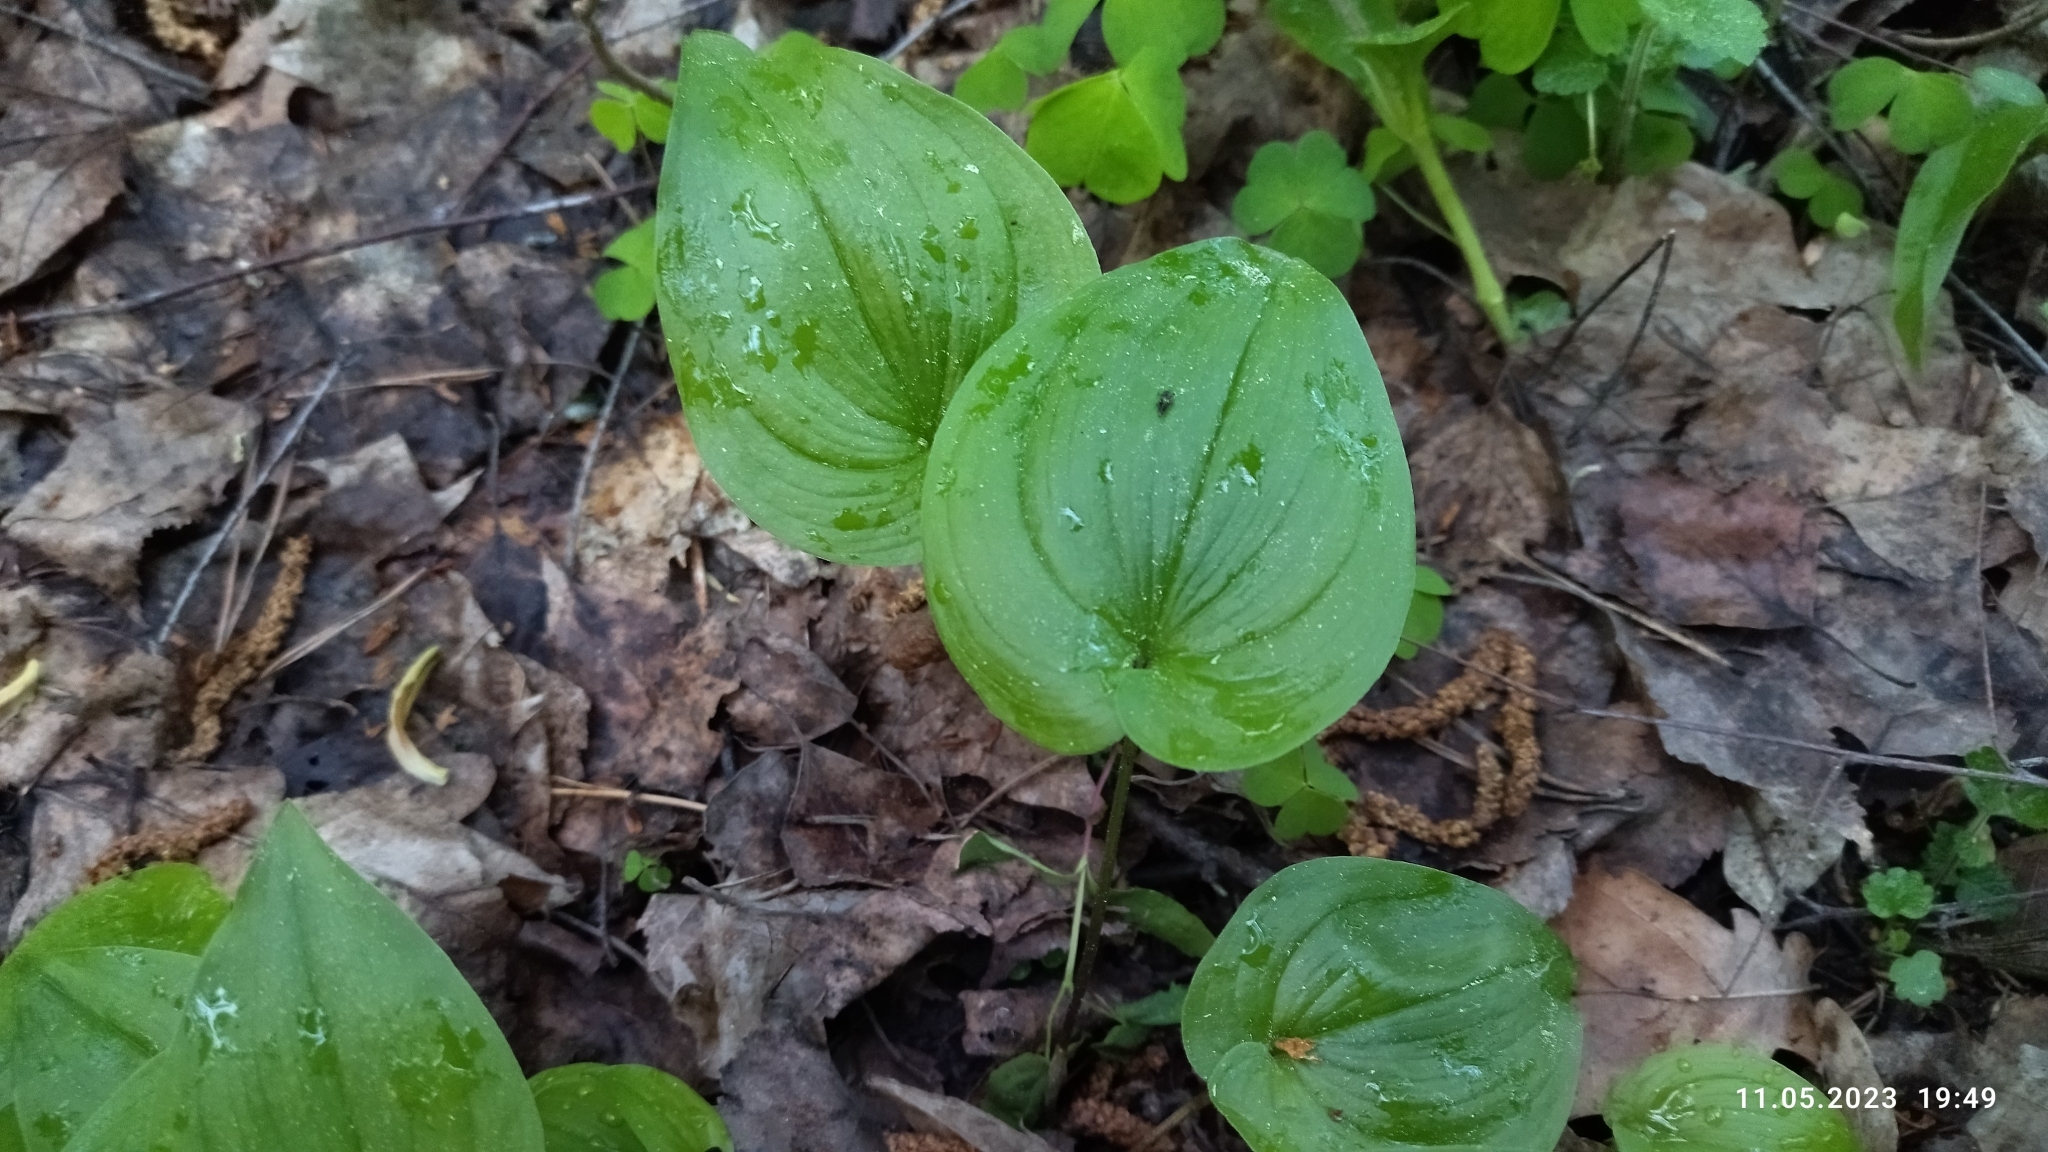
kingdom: Plantae
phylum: Tracheophyta
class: Liliopsida
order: Asparagales
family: Asparagaceae
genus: Maianthemum
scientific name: Maianthemum bifolium
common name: May lily
